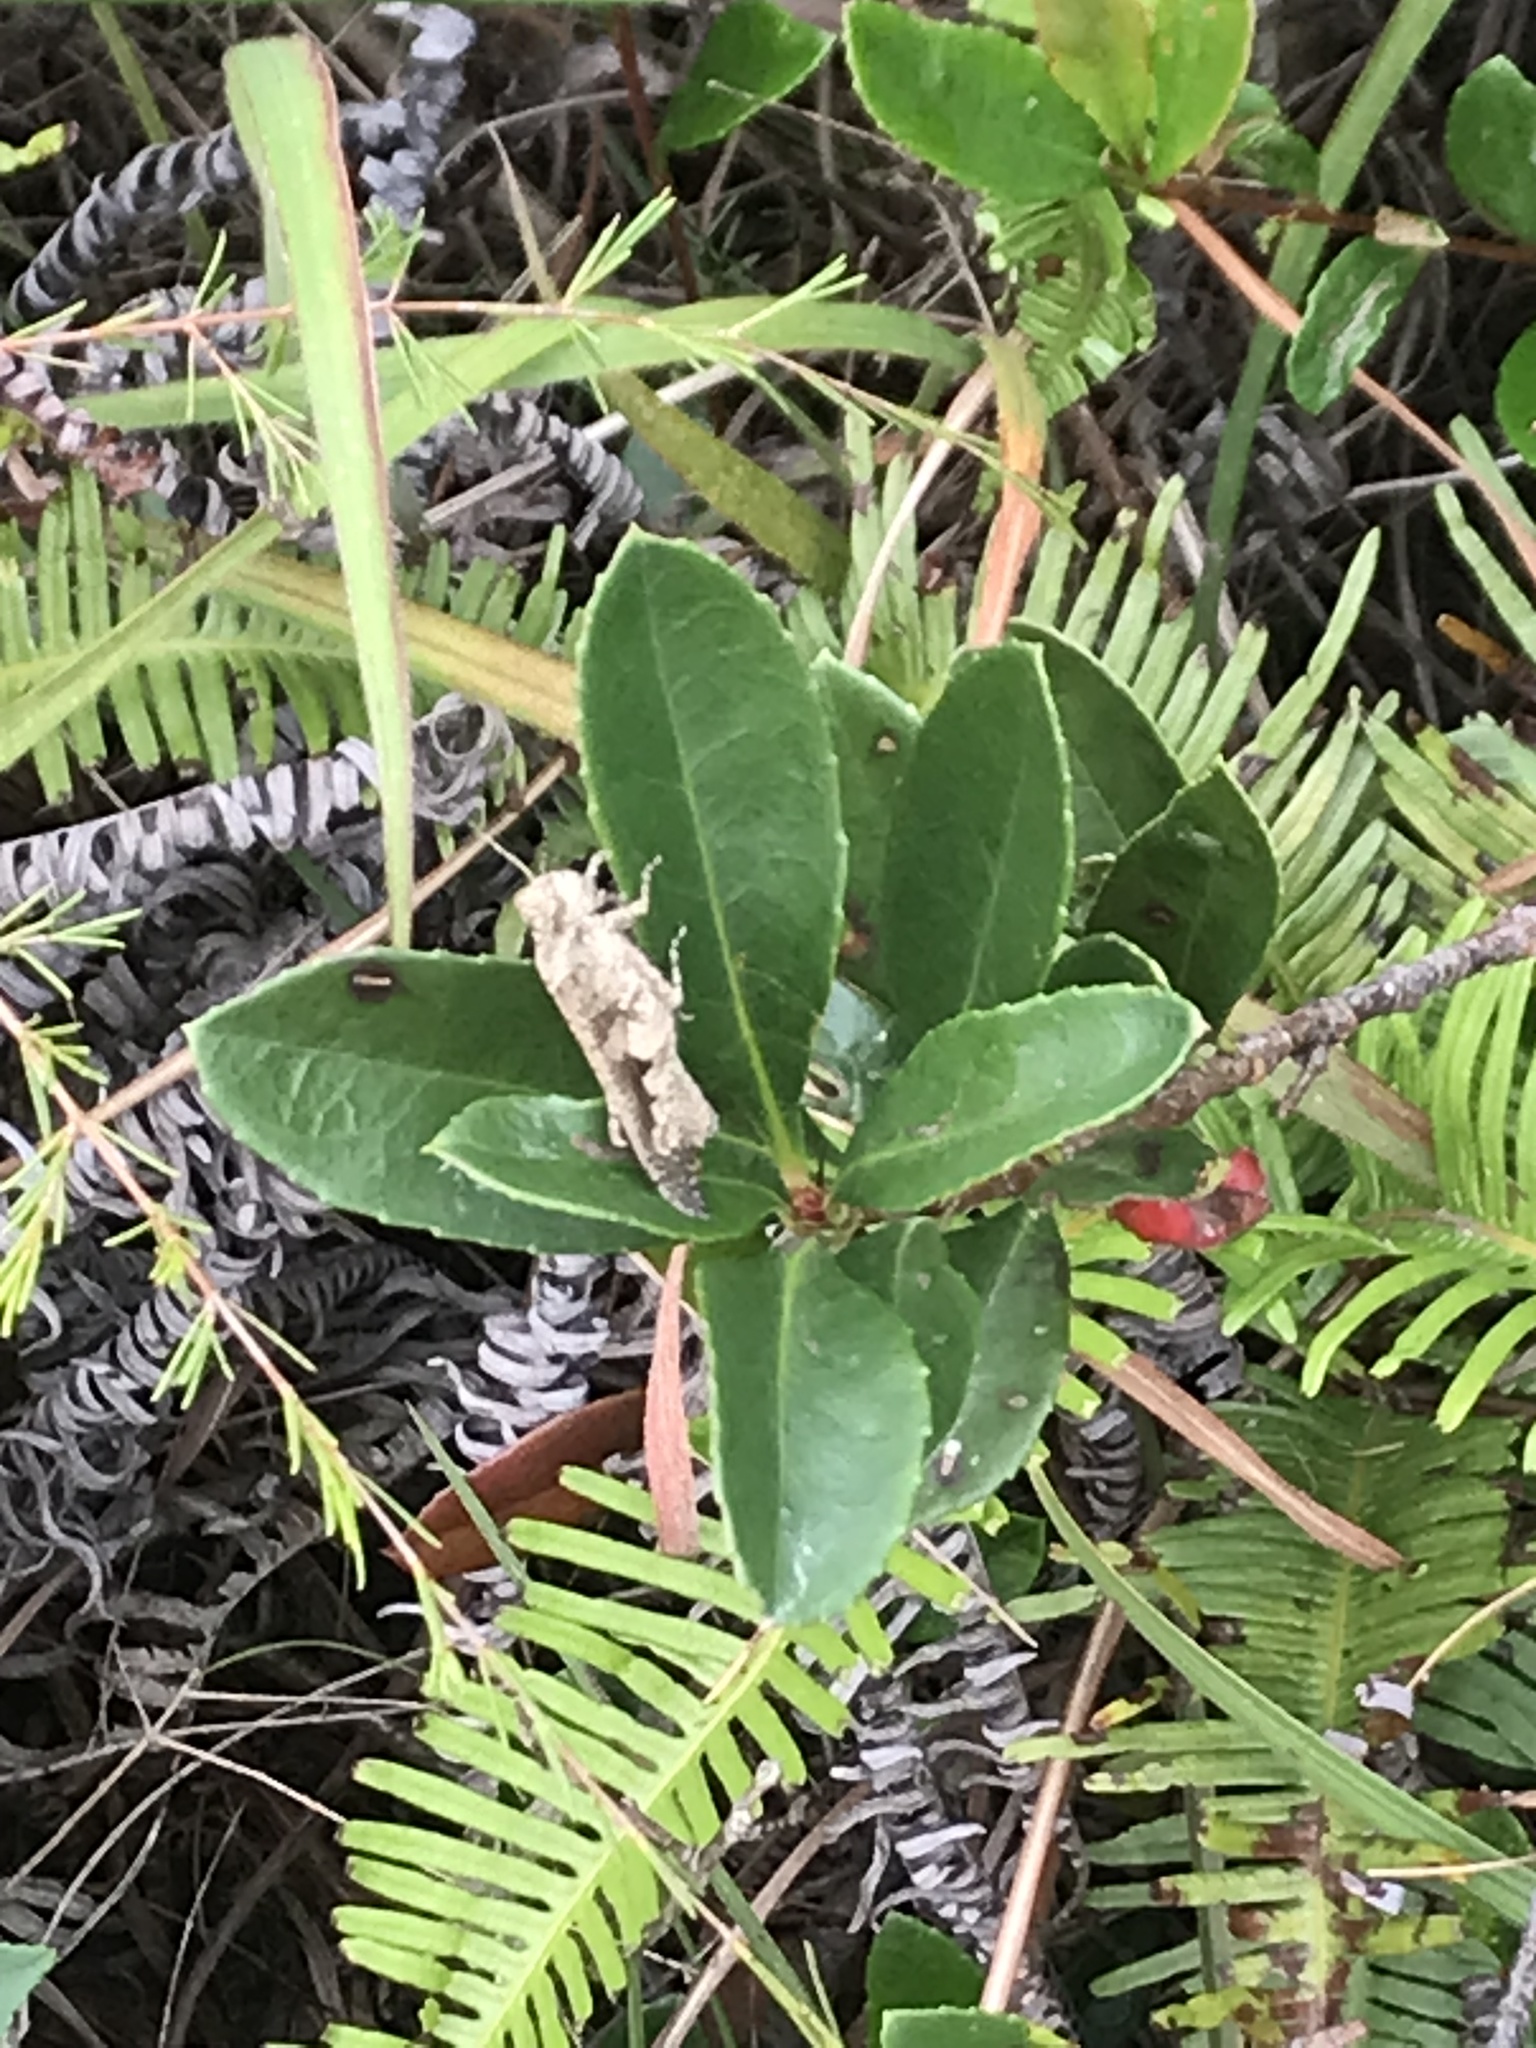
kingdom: Animalia
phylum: Arthropoda
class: Insecta
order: Orthoptera
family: Acrididae
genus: Trilophidia
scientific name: Trilophidia annulata
